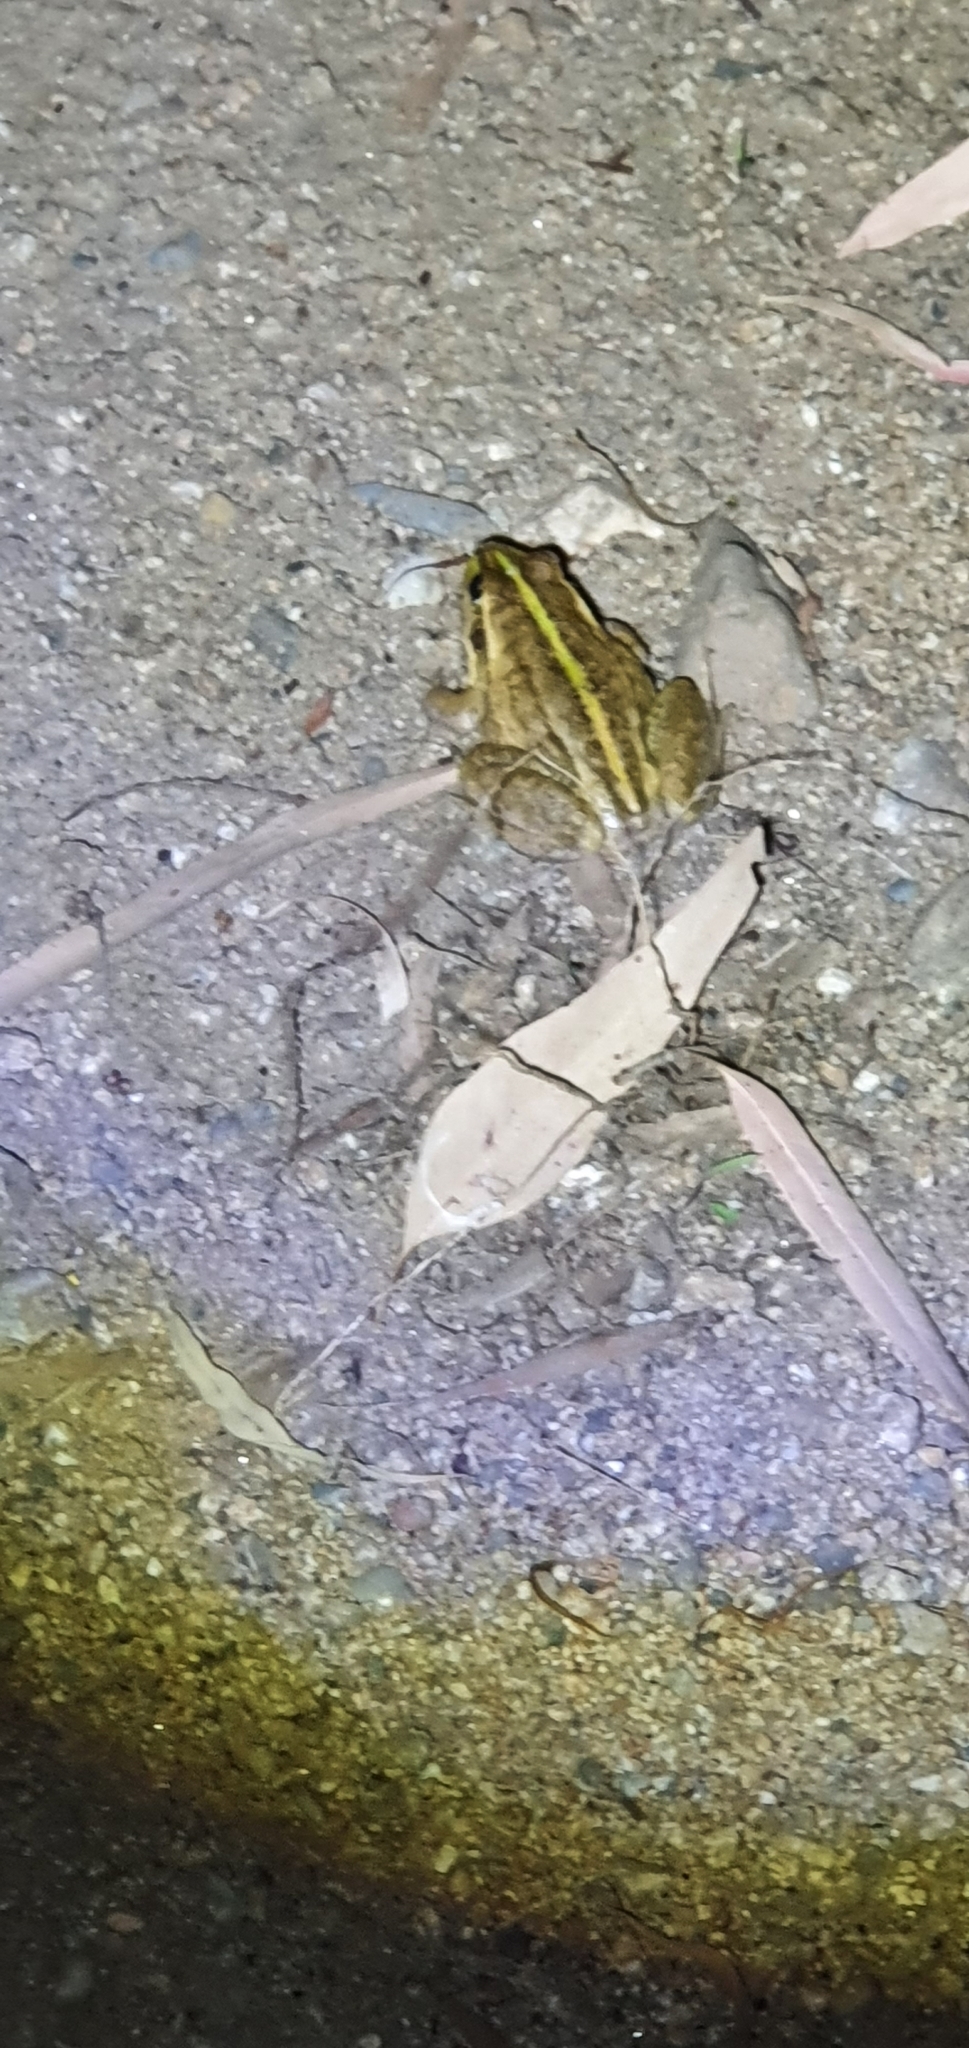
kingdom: Animalia
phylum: Chordata
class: Amphibia
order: Anura
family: Pelodryadidae
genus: Ranoidea
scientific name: Ranoidea alboguttata
